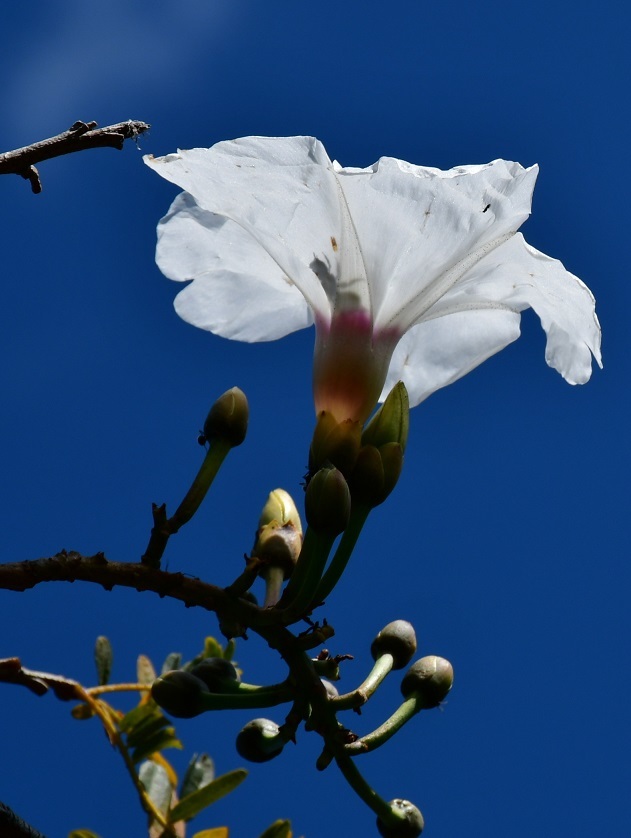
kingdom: Plantae
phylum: Tracheophyta
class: Magnoliopsida
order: Solanales
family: Convolvulaceae
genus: Ipomoea
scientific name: Ipomoea pauciflora
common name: Tree morningglory
